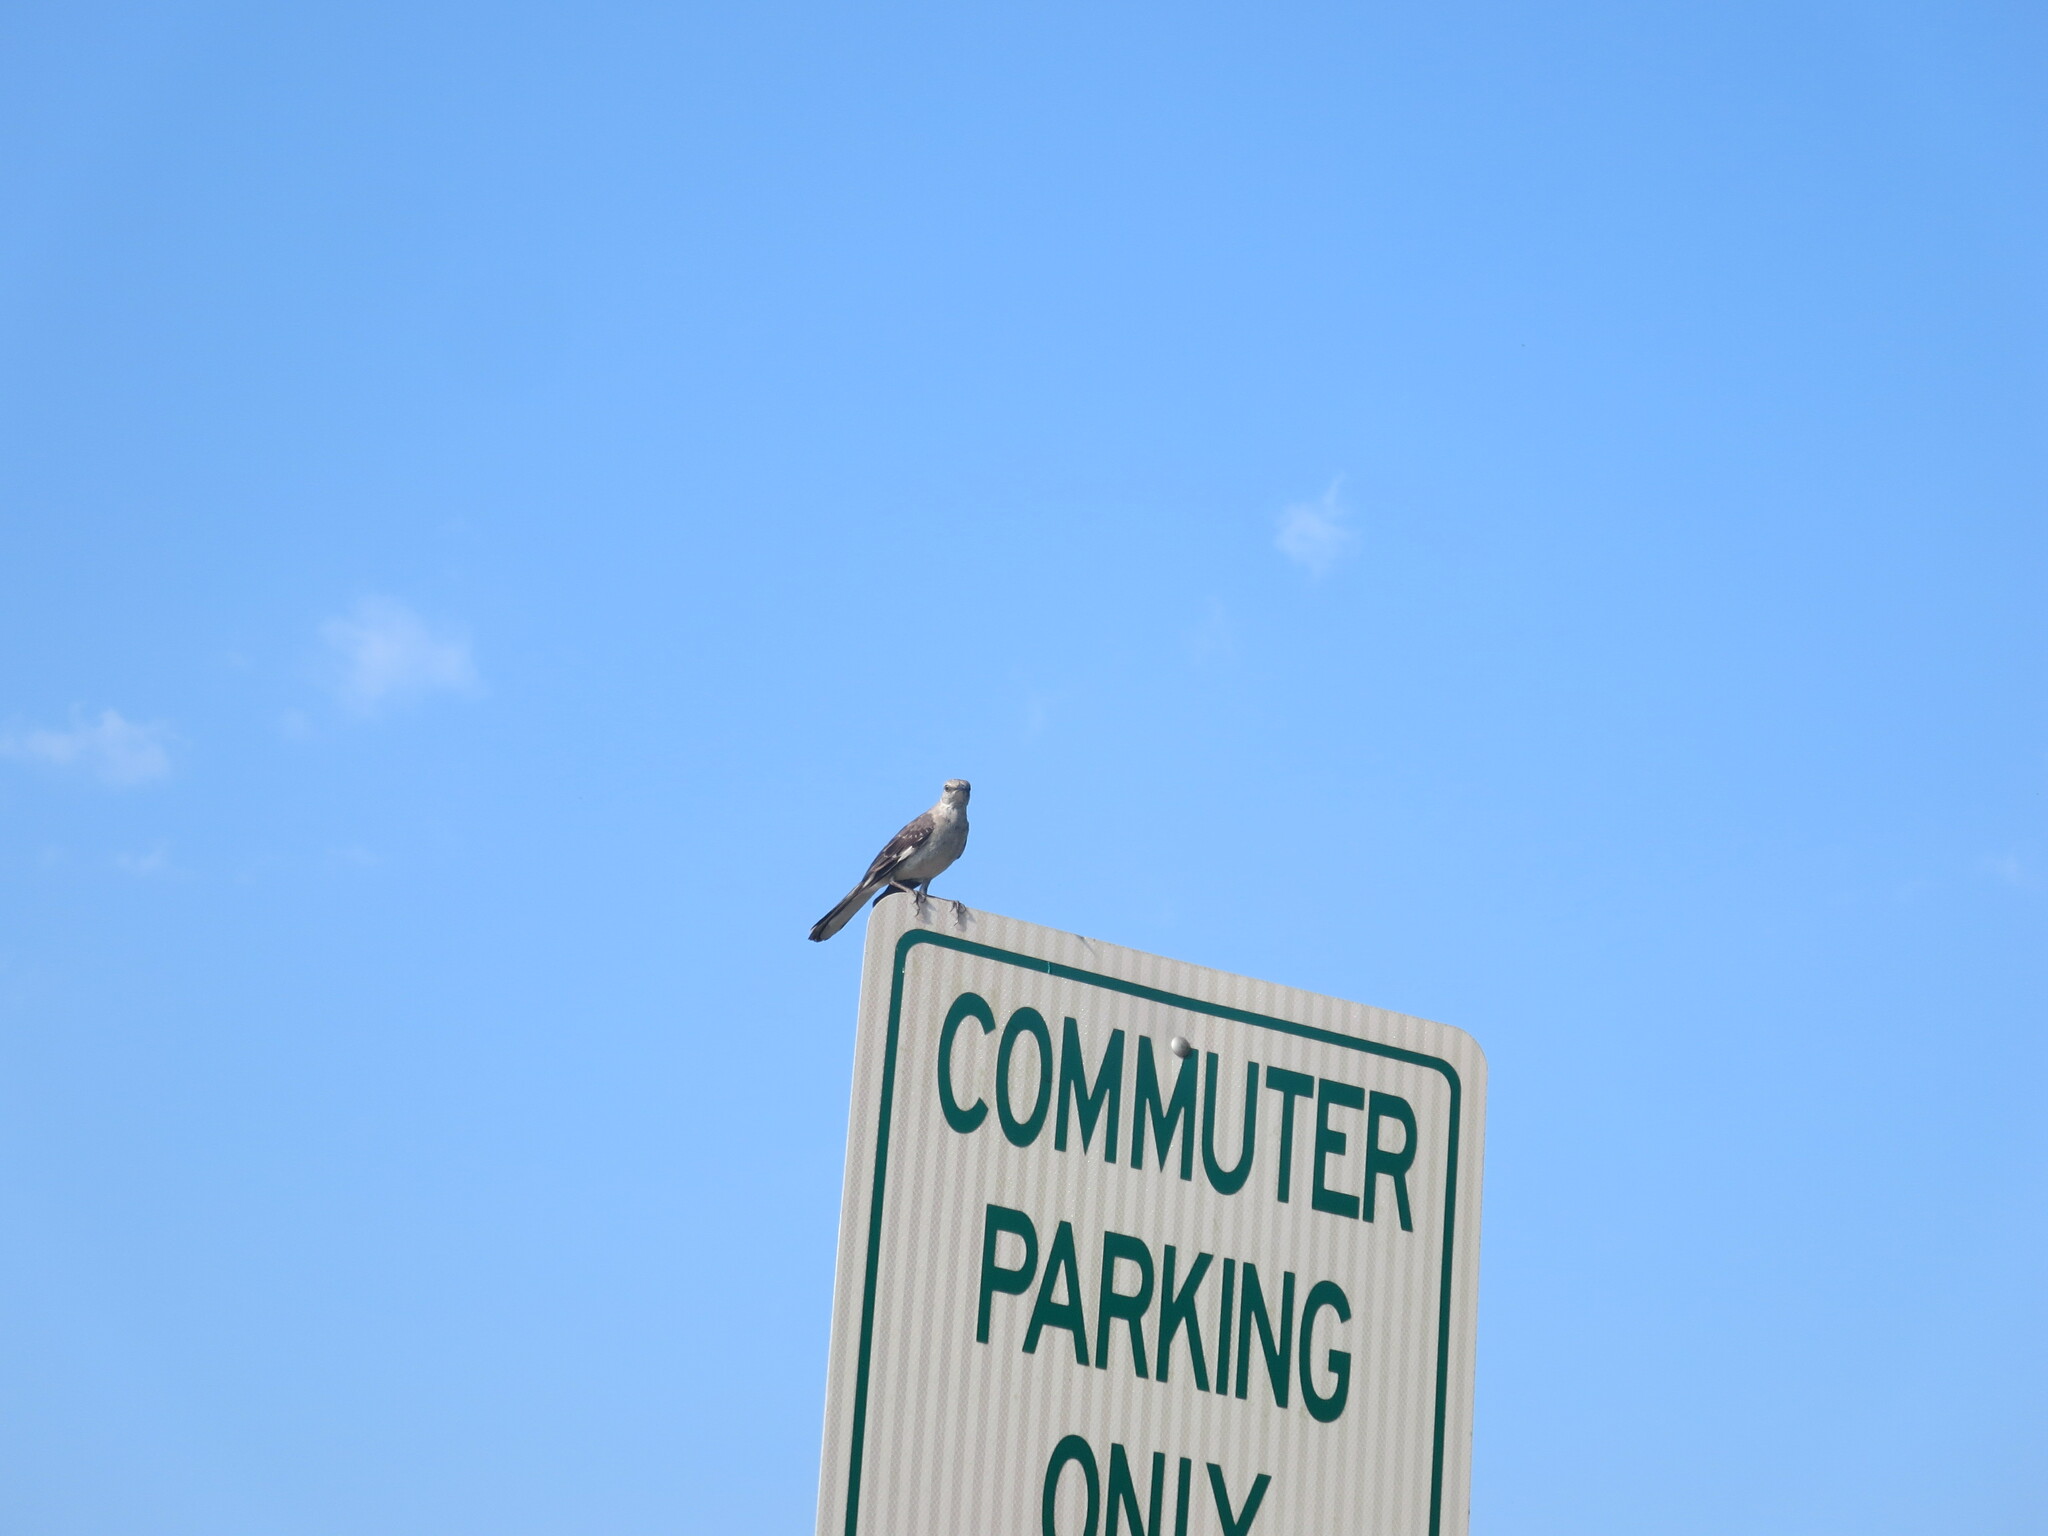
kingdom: Animalia
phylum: Chordata
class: Aves
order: Passeriformes
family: Mimidae
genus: Mimus
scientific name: Mimus polyglottos
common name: Northern mockingbird
